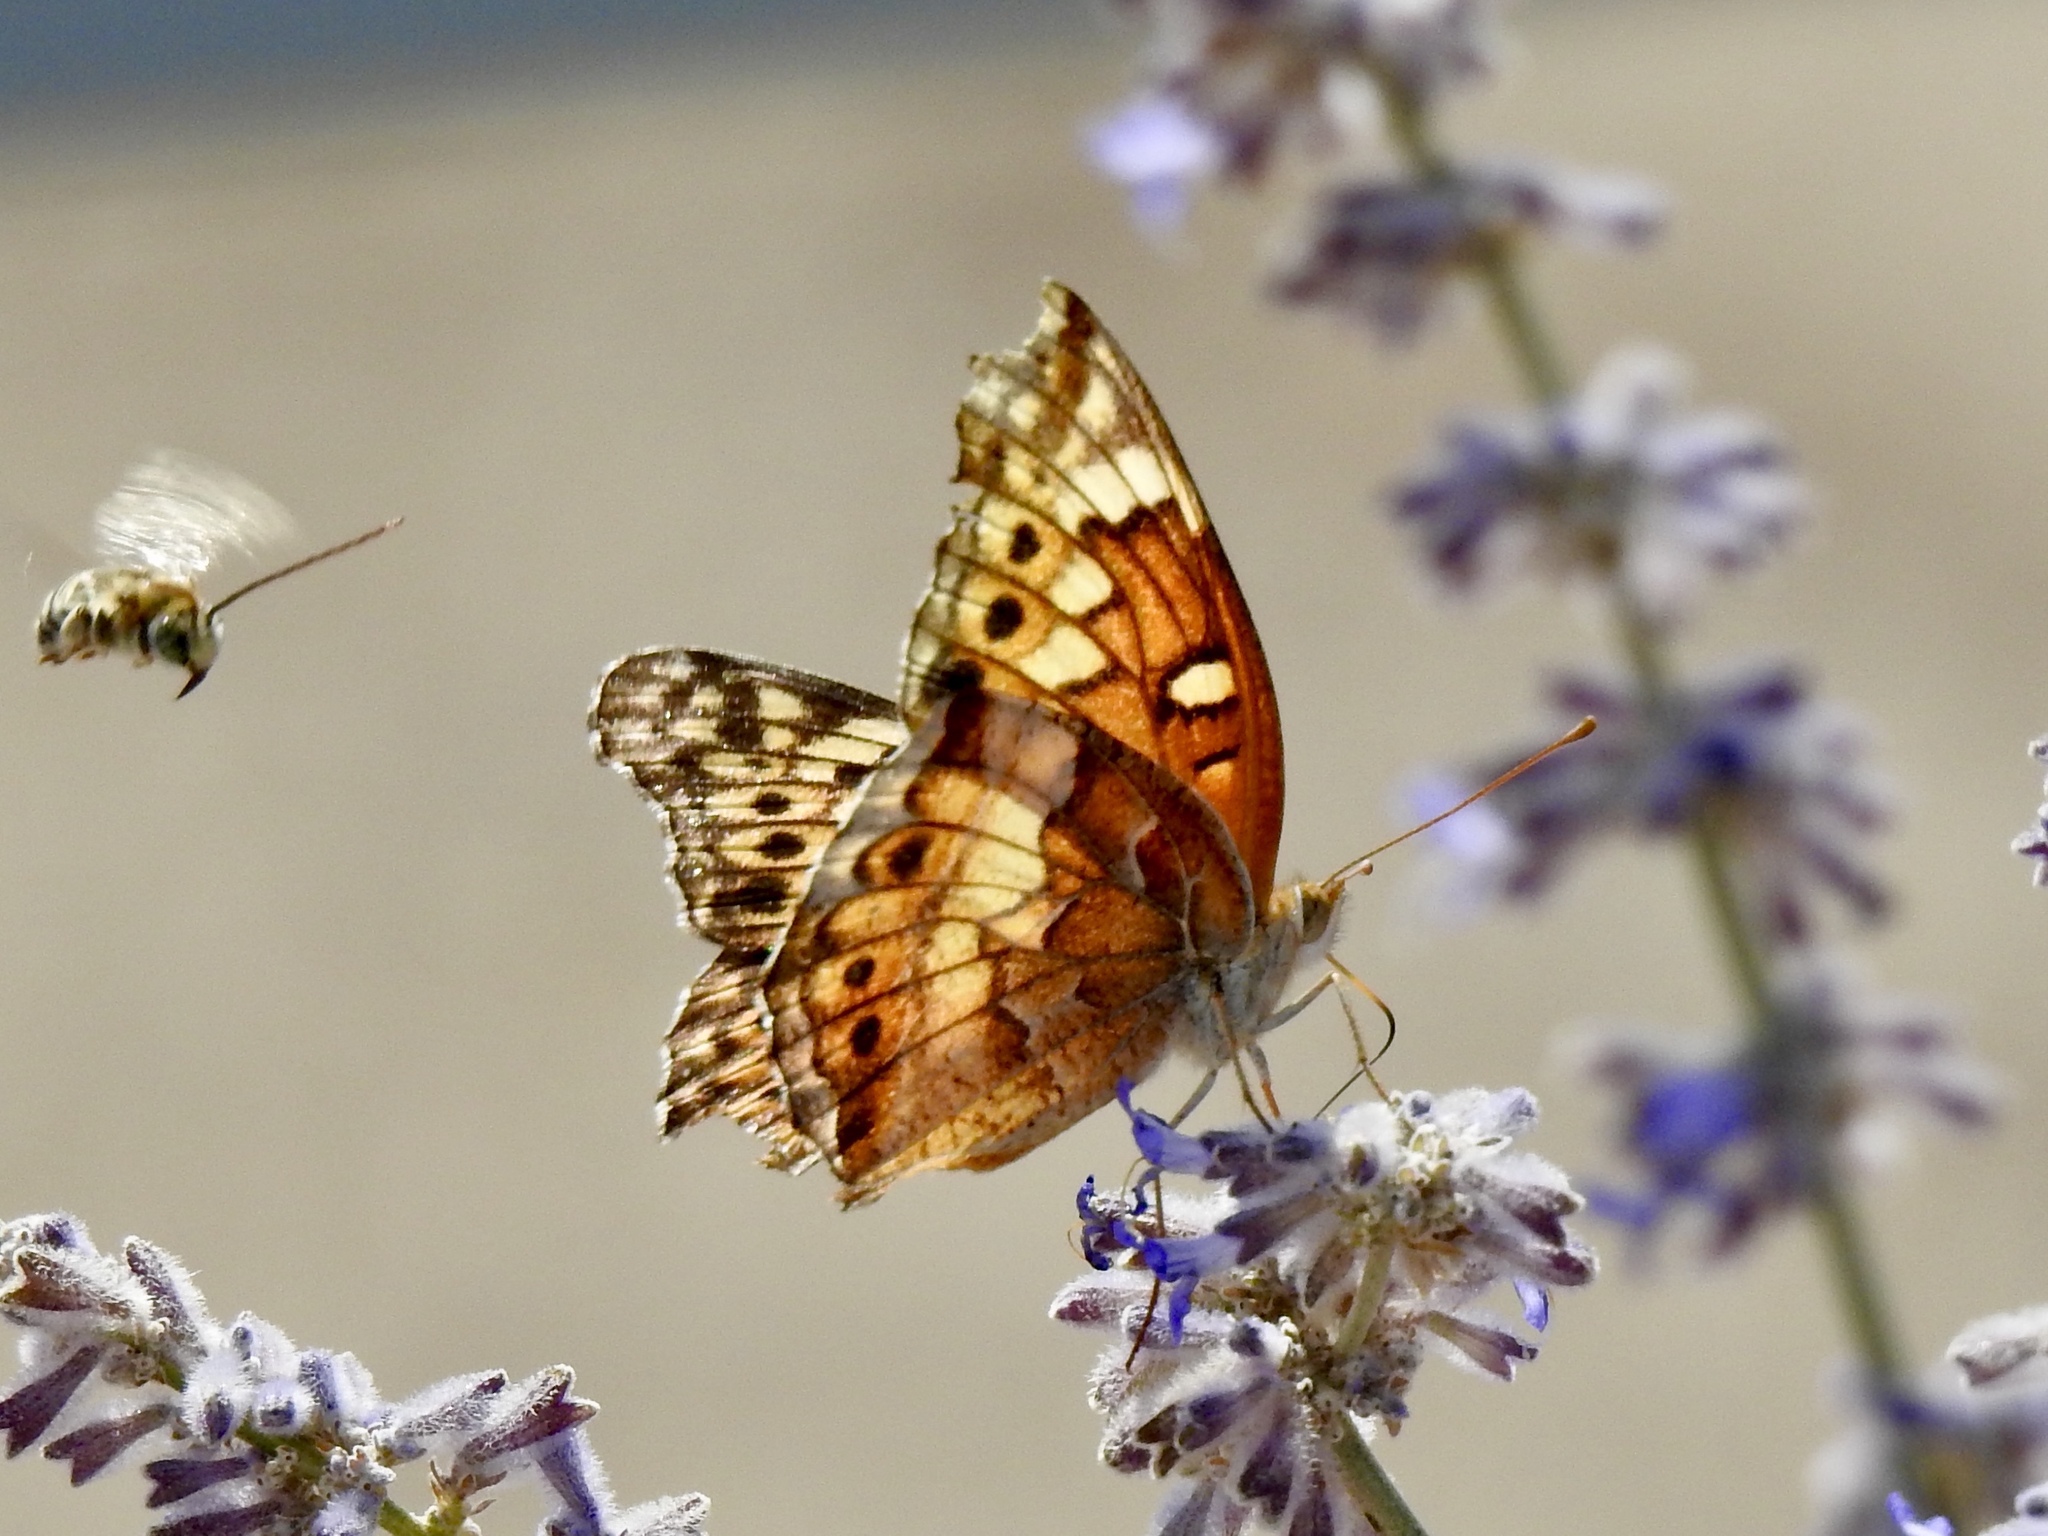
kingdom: Animalia
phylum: Arthropoda
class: Insecta
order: Lepidoptera
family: Nymphalidae
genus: Euptoieta
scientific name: Euptoieta claudia
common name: Variegated fritillary
